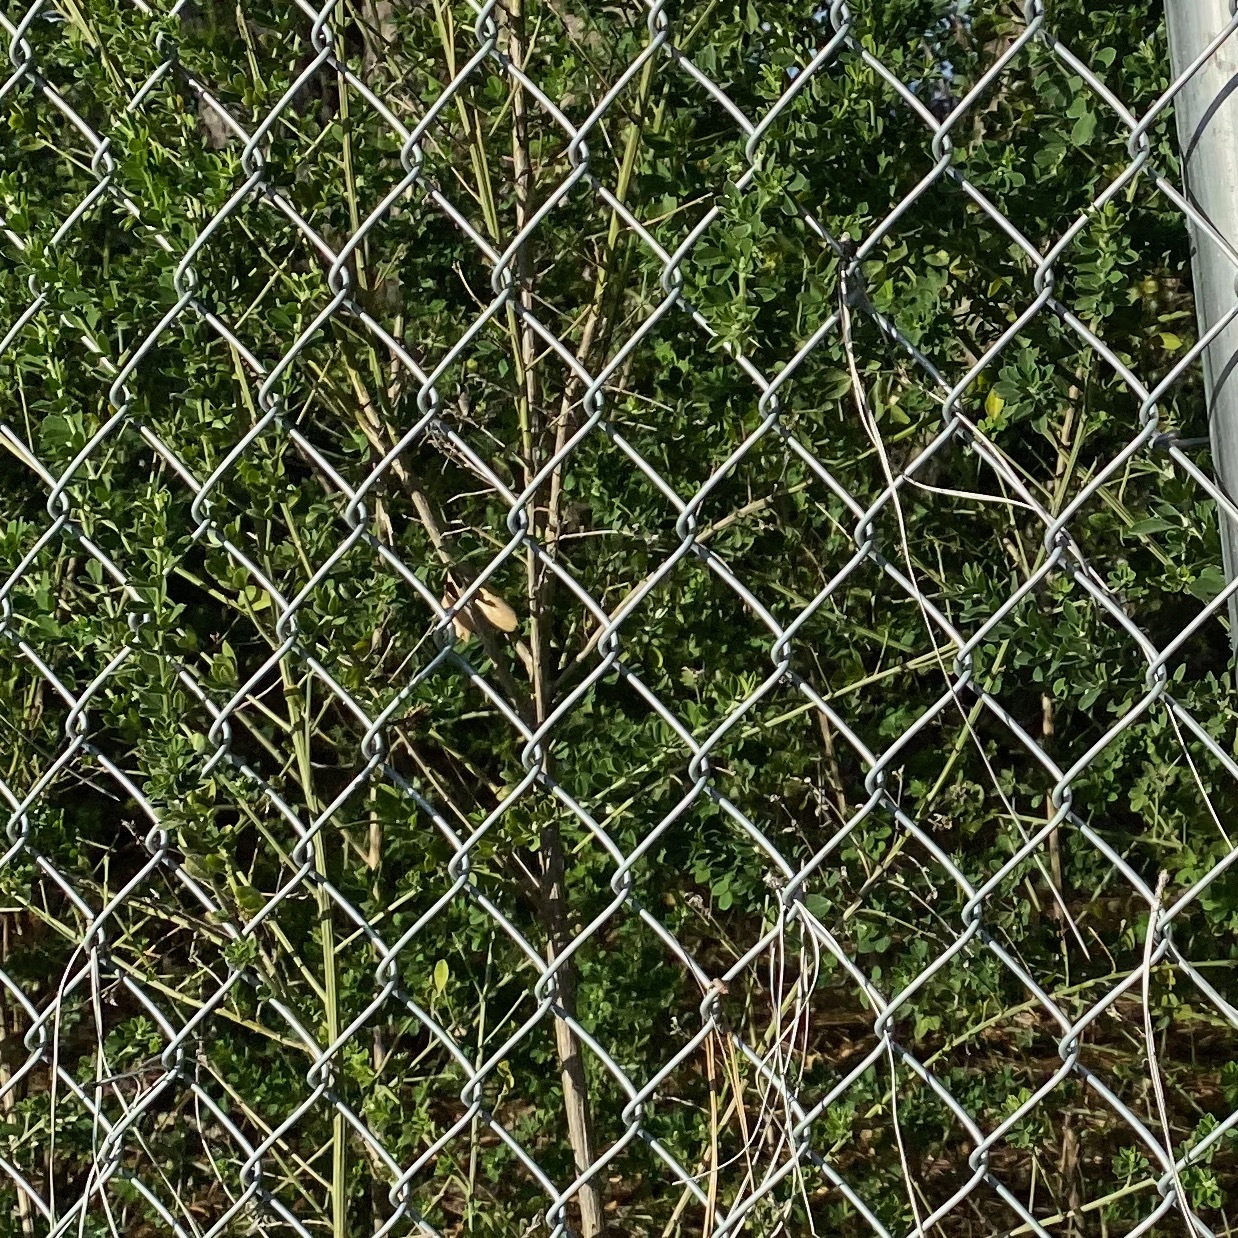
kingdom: Plantae
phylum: Tracheophyta
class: Magnoliopsida
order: Fabales
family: Fabaceae
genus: Genista
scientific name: Genista monspessulana
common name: Montpellier broom
